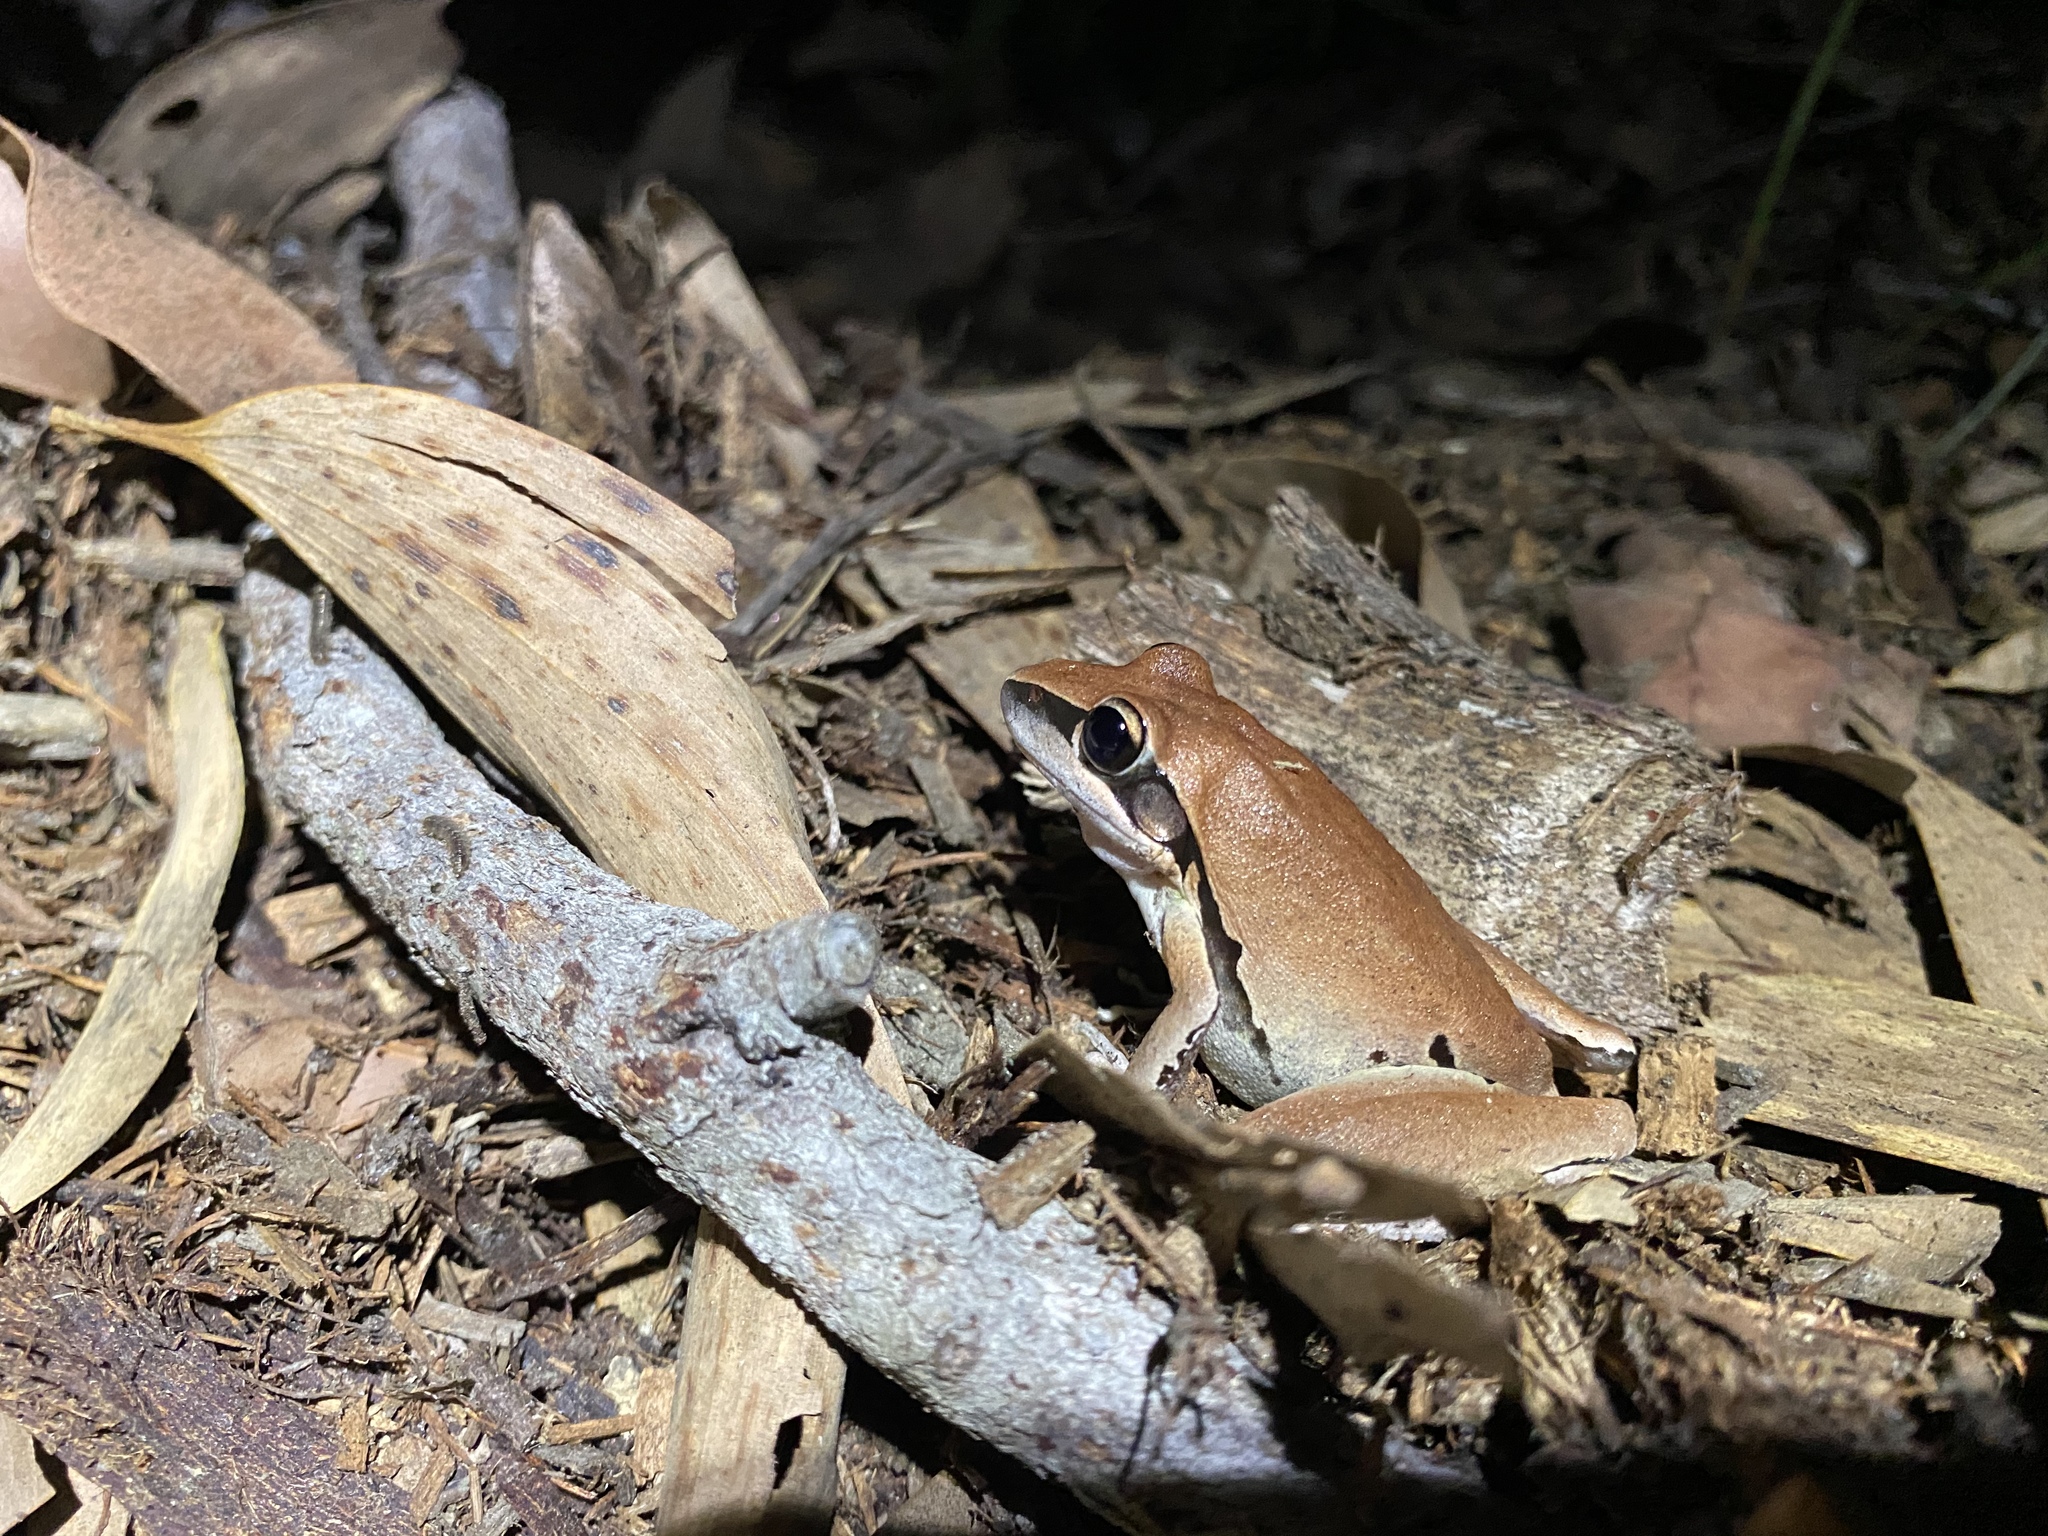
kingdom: Animalia
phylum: Chordata
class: Amphibia
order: Anura
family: Pelodryadidae
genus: Litoria
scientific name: Litoria nigrofrenata
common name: Bridle frog
